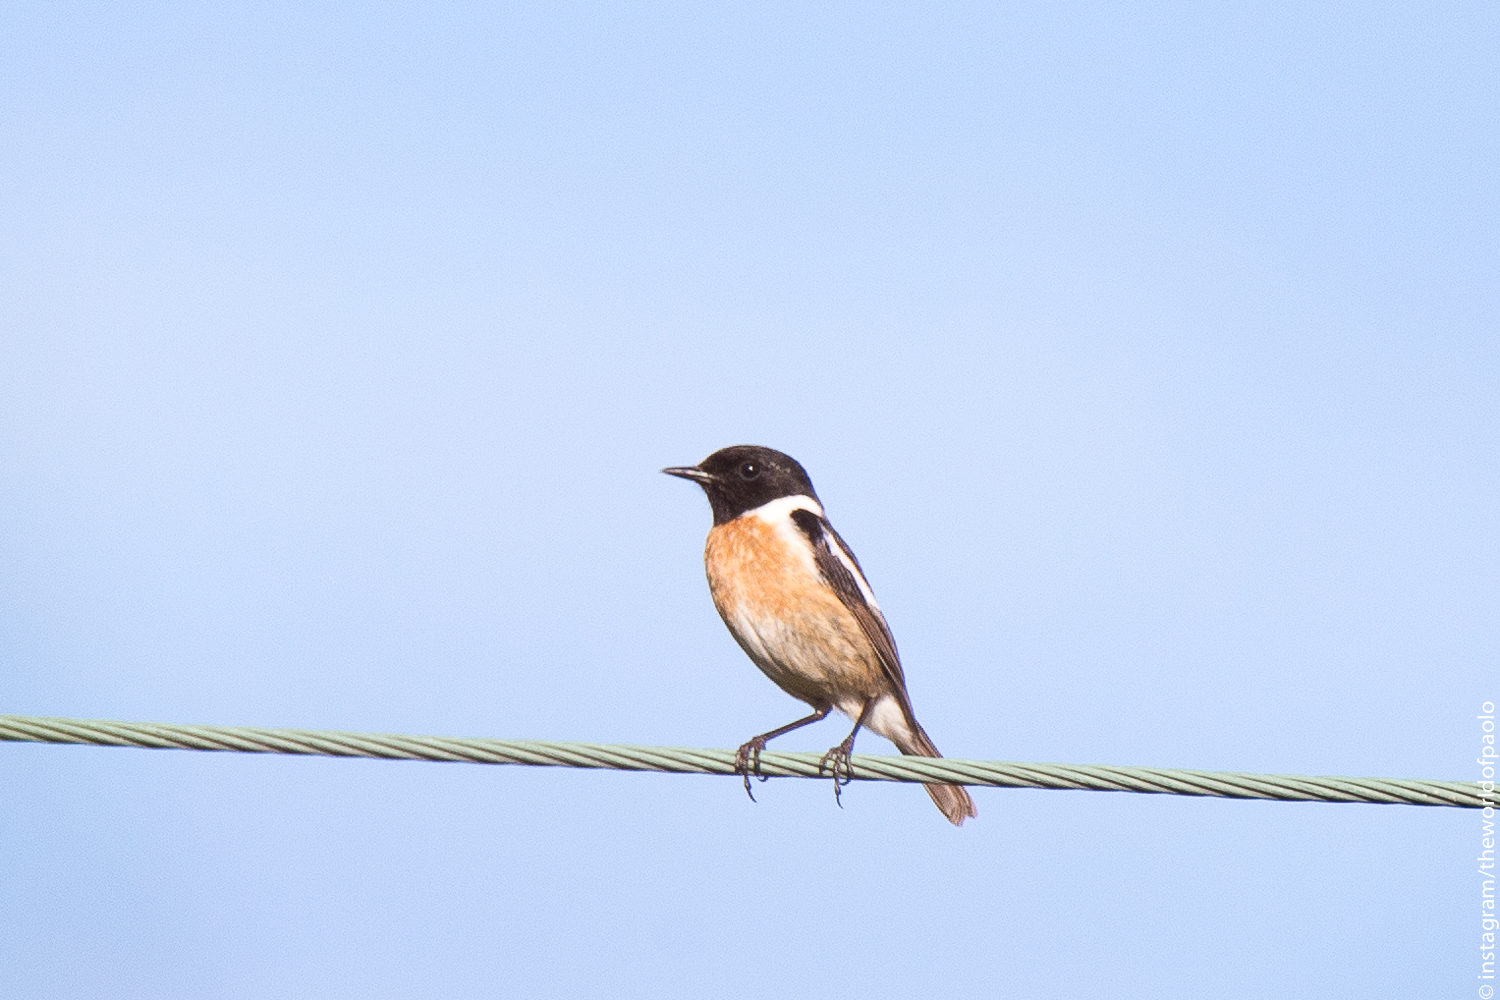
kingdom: Animalia
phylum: Chordata
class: Aves
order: Passeriformes
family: Muscicapidae
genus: Saxicola
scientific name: Saxicola rubicola
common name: European stonechat
